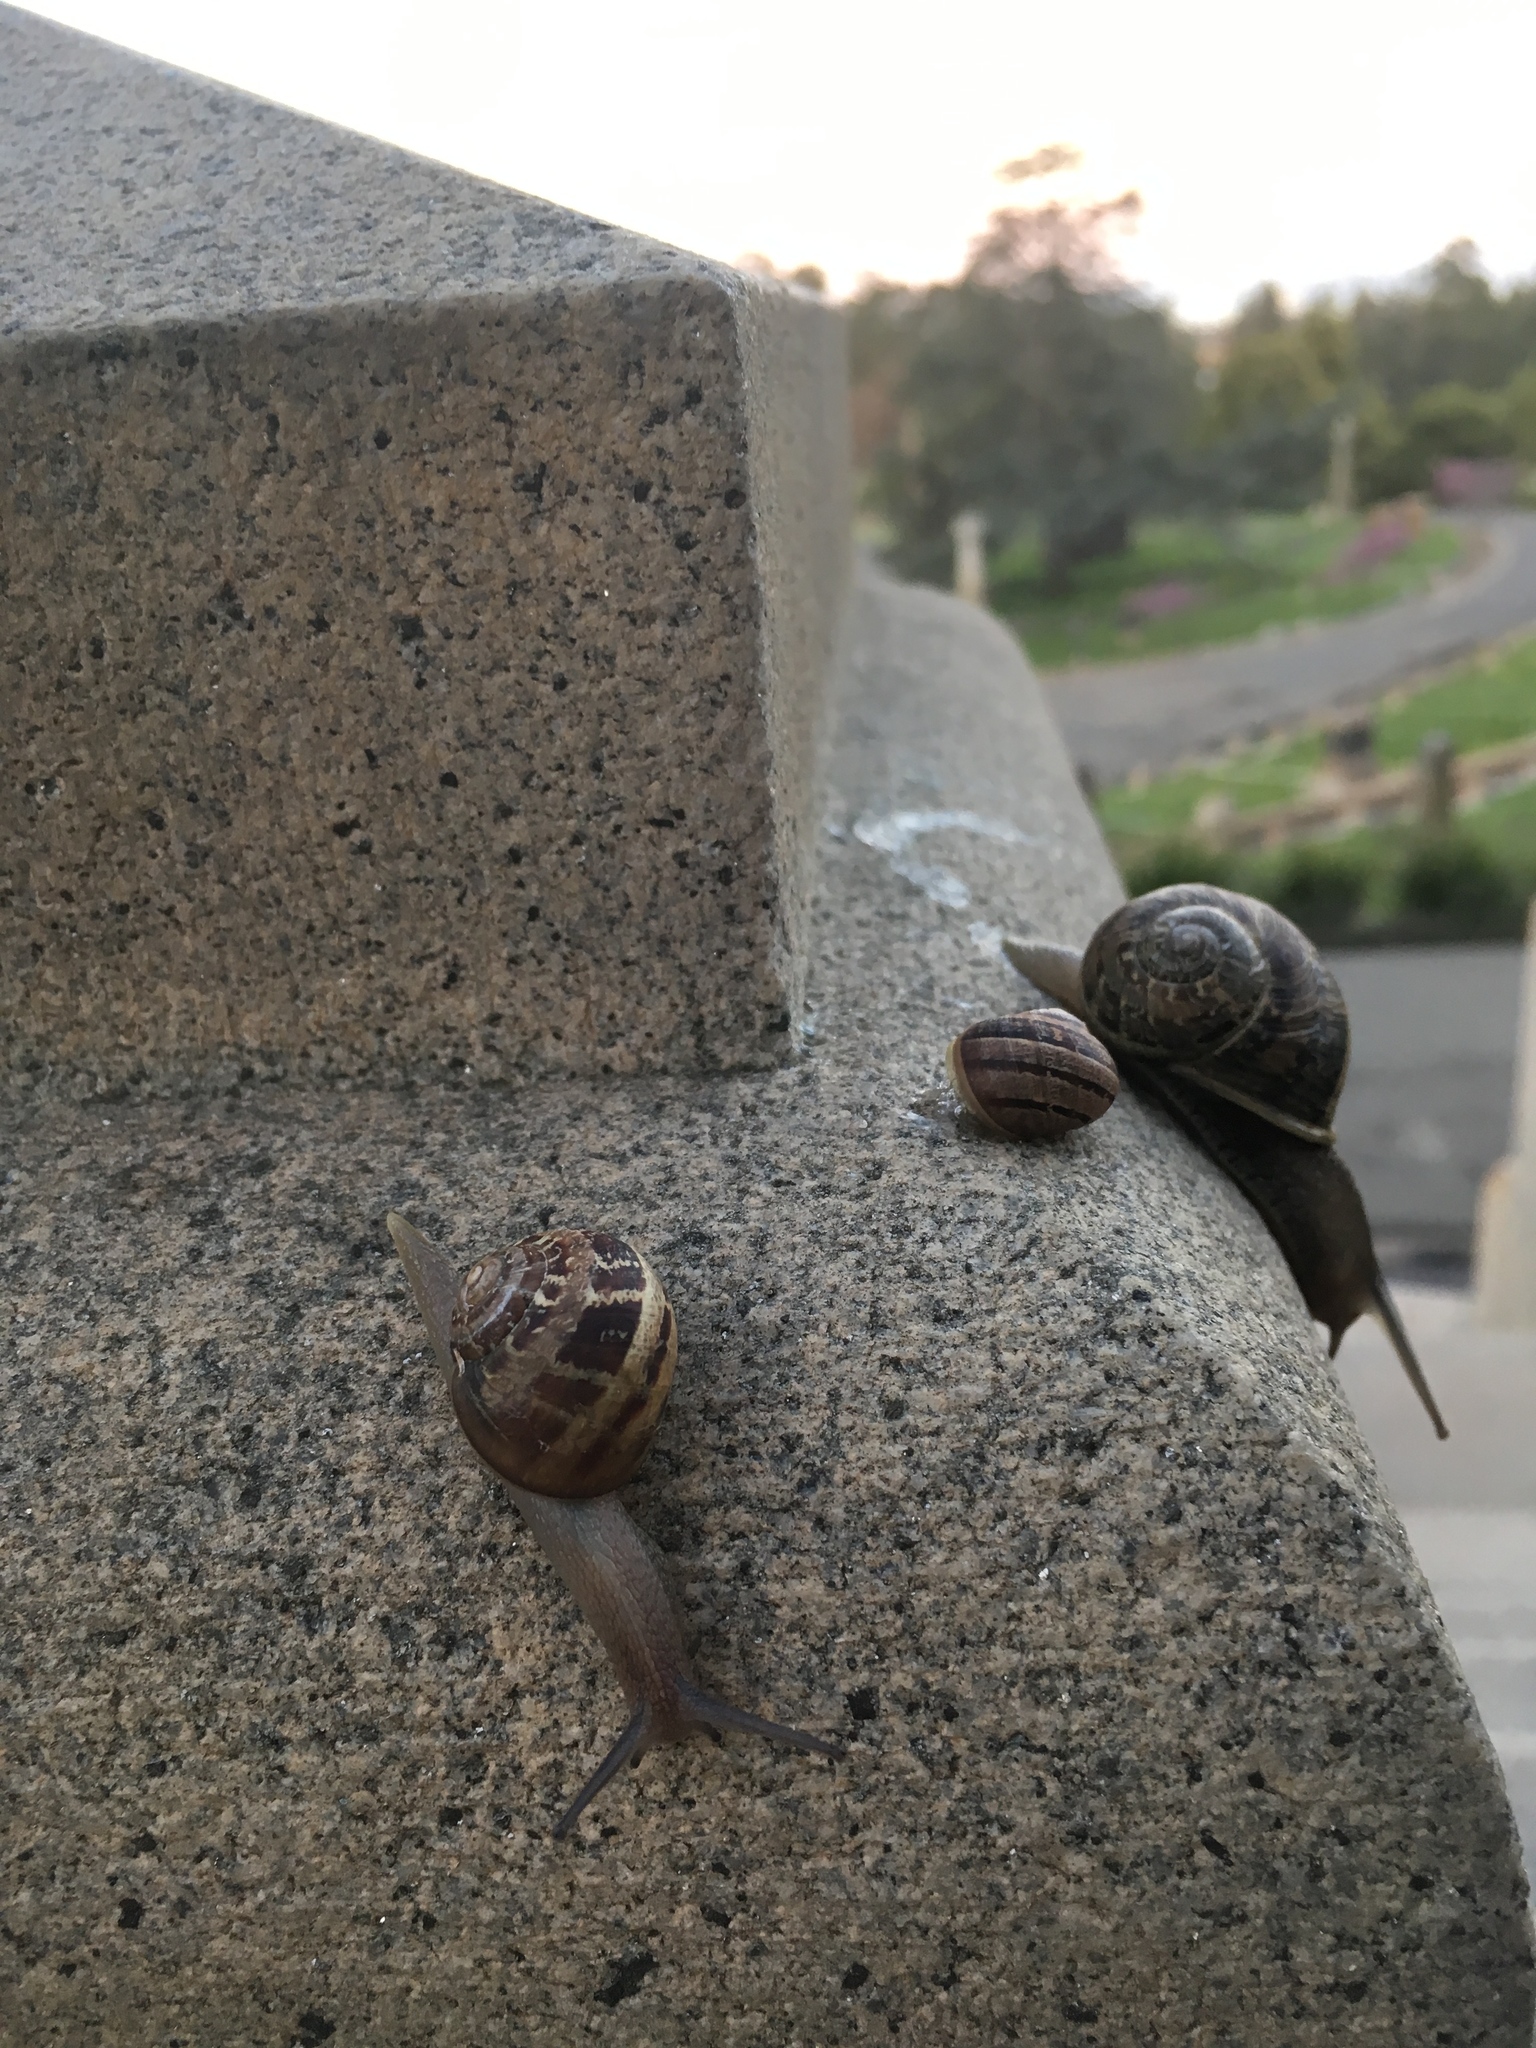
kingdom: Animalia
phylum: Mollusca
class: Gastropoda
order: Stylommatophora
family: Helicidae
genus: Cornu
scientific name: Cornu aspersum
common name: Brown garden snail
